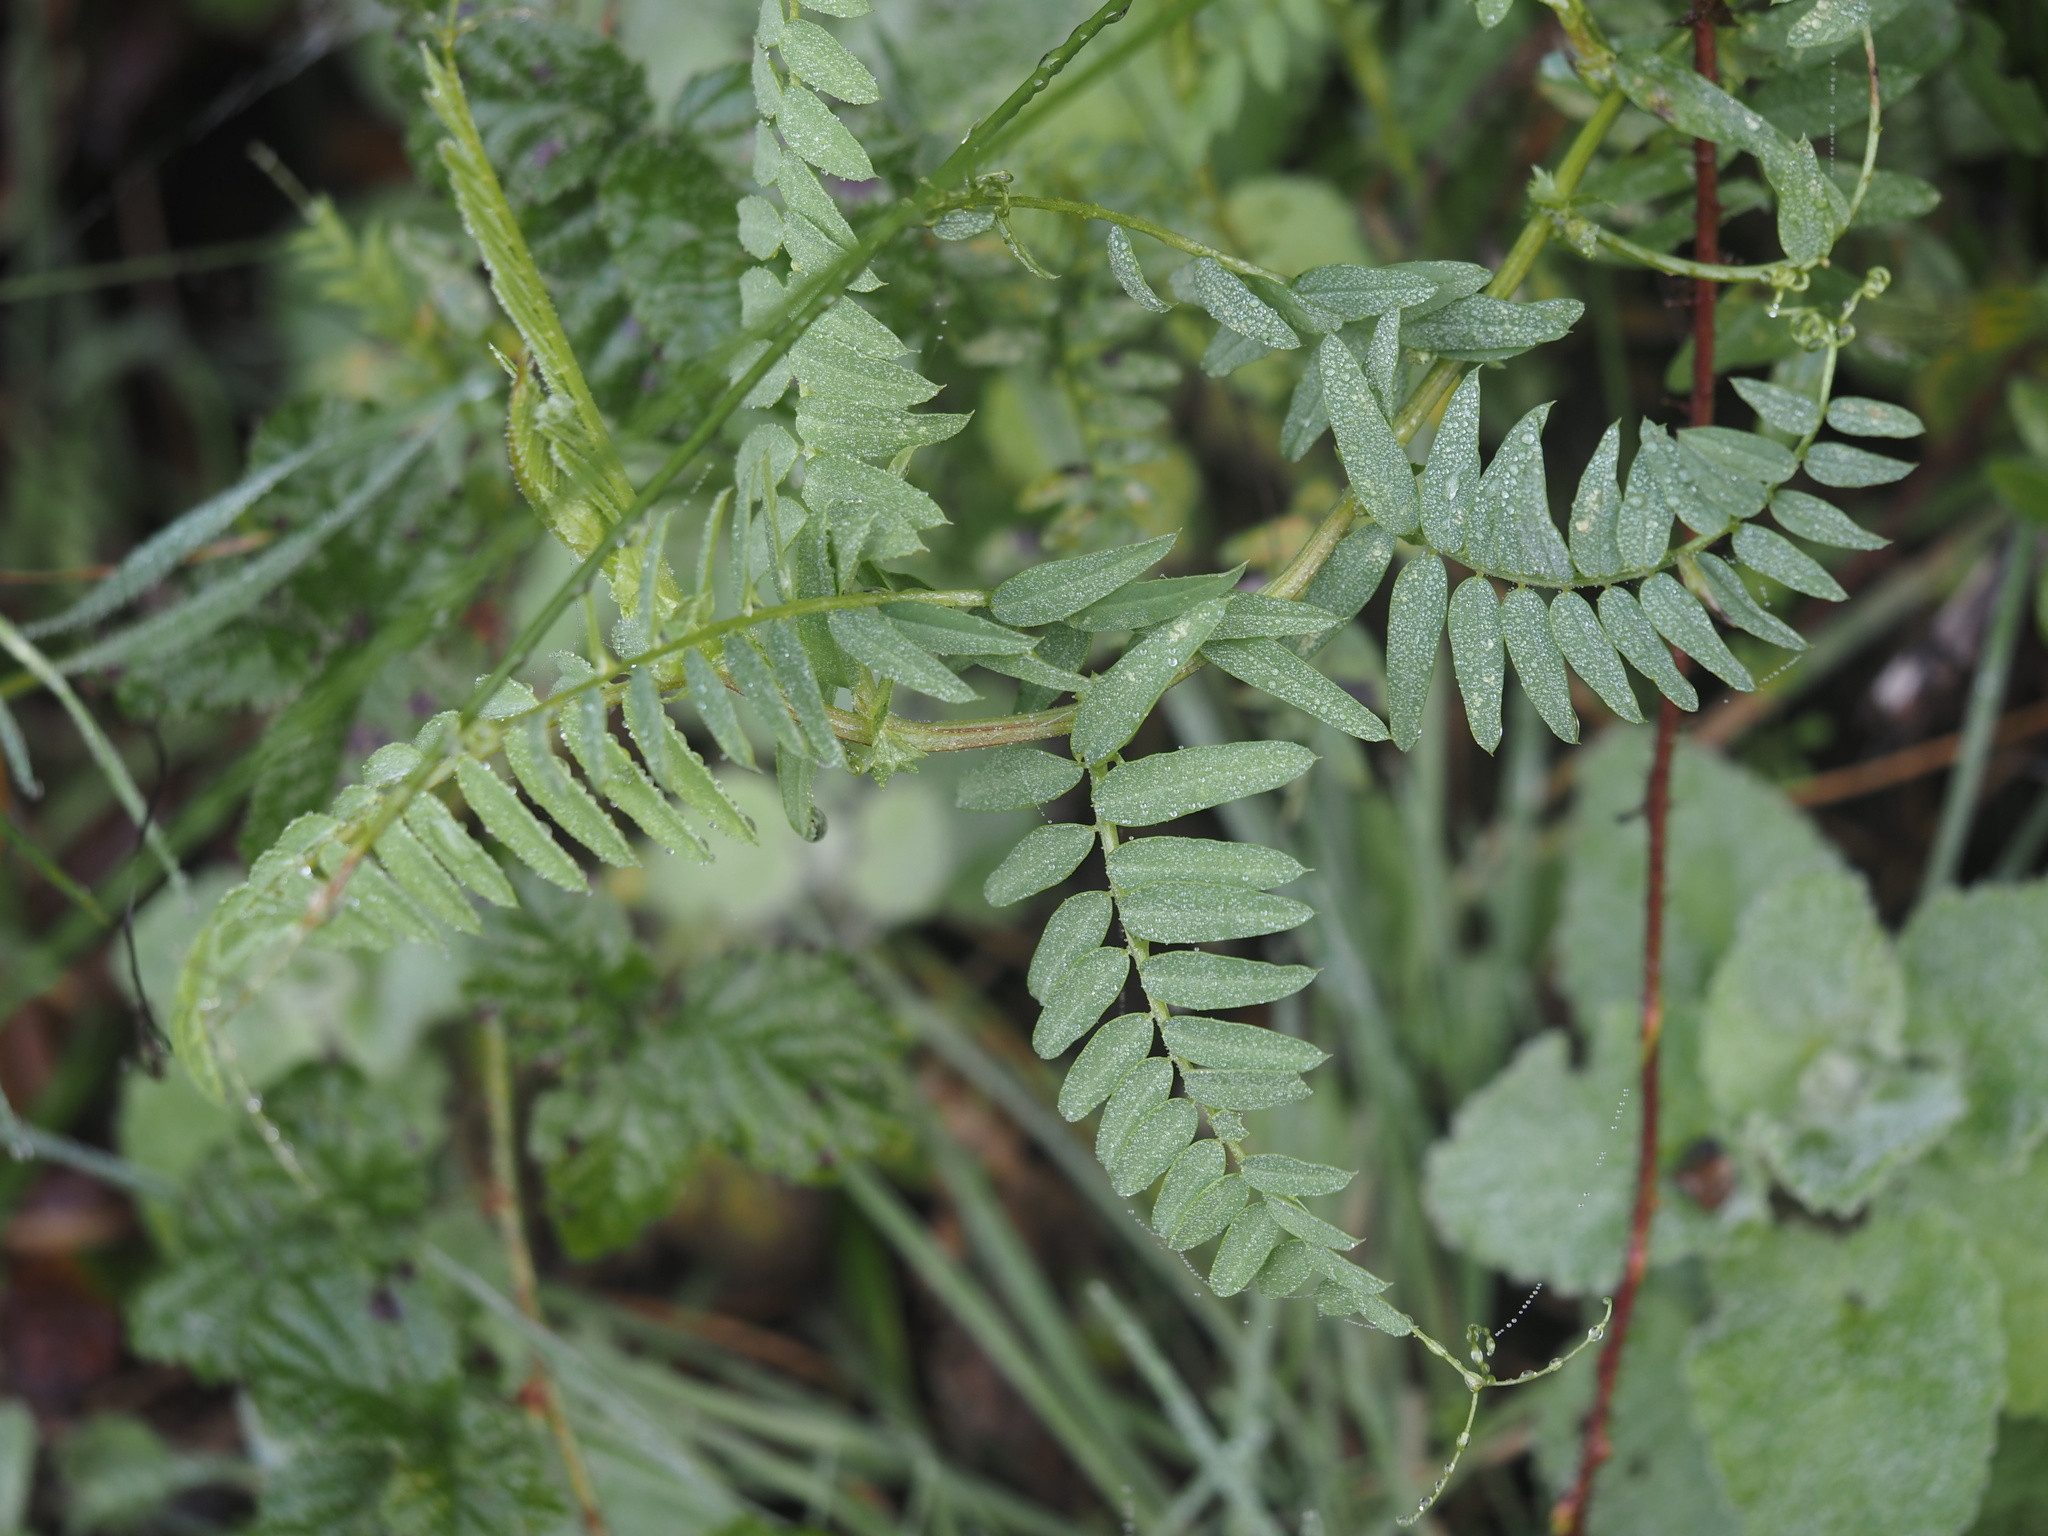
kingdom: Plantae
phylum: Tracheophyta
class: Magnoliopsida
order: Fabales
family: Fabaceae
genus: Vicia
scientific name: Vicia
